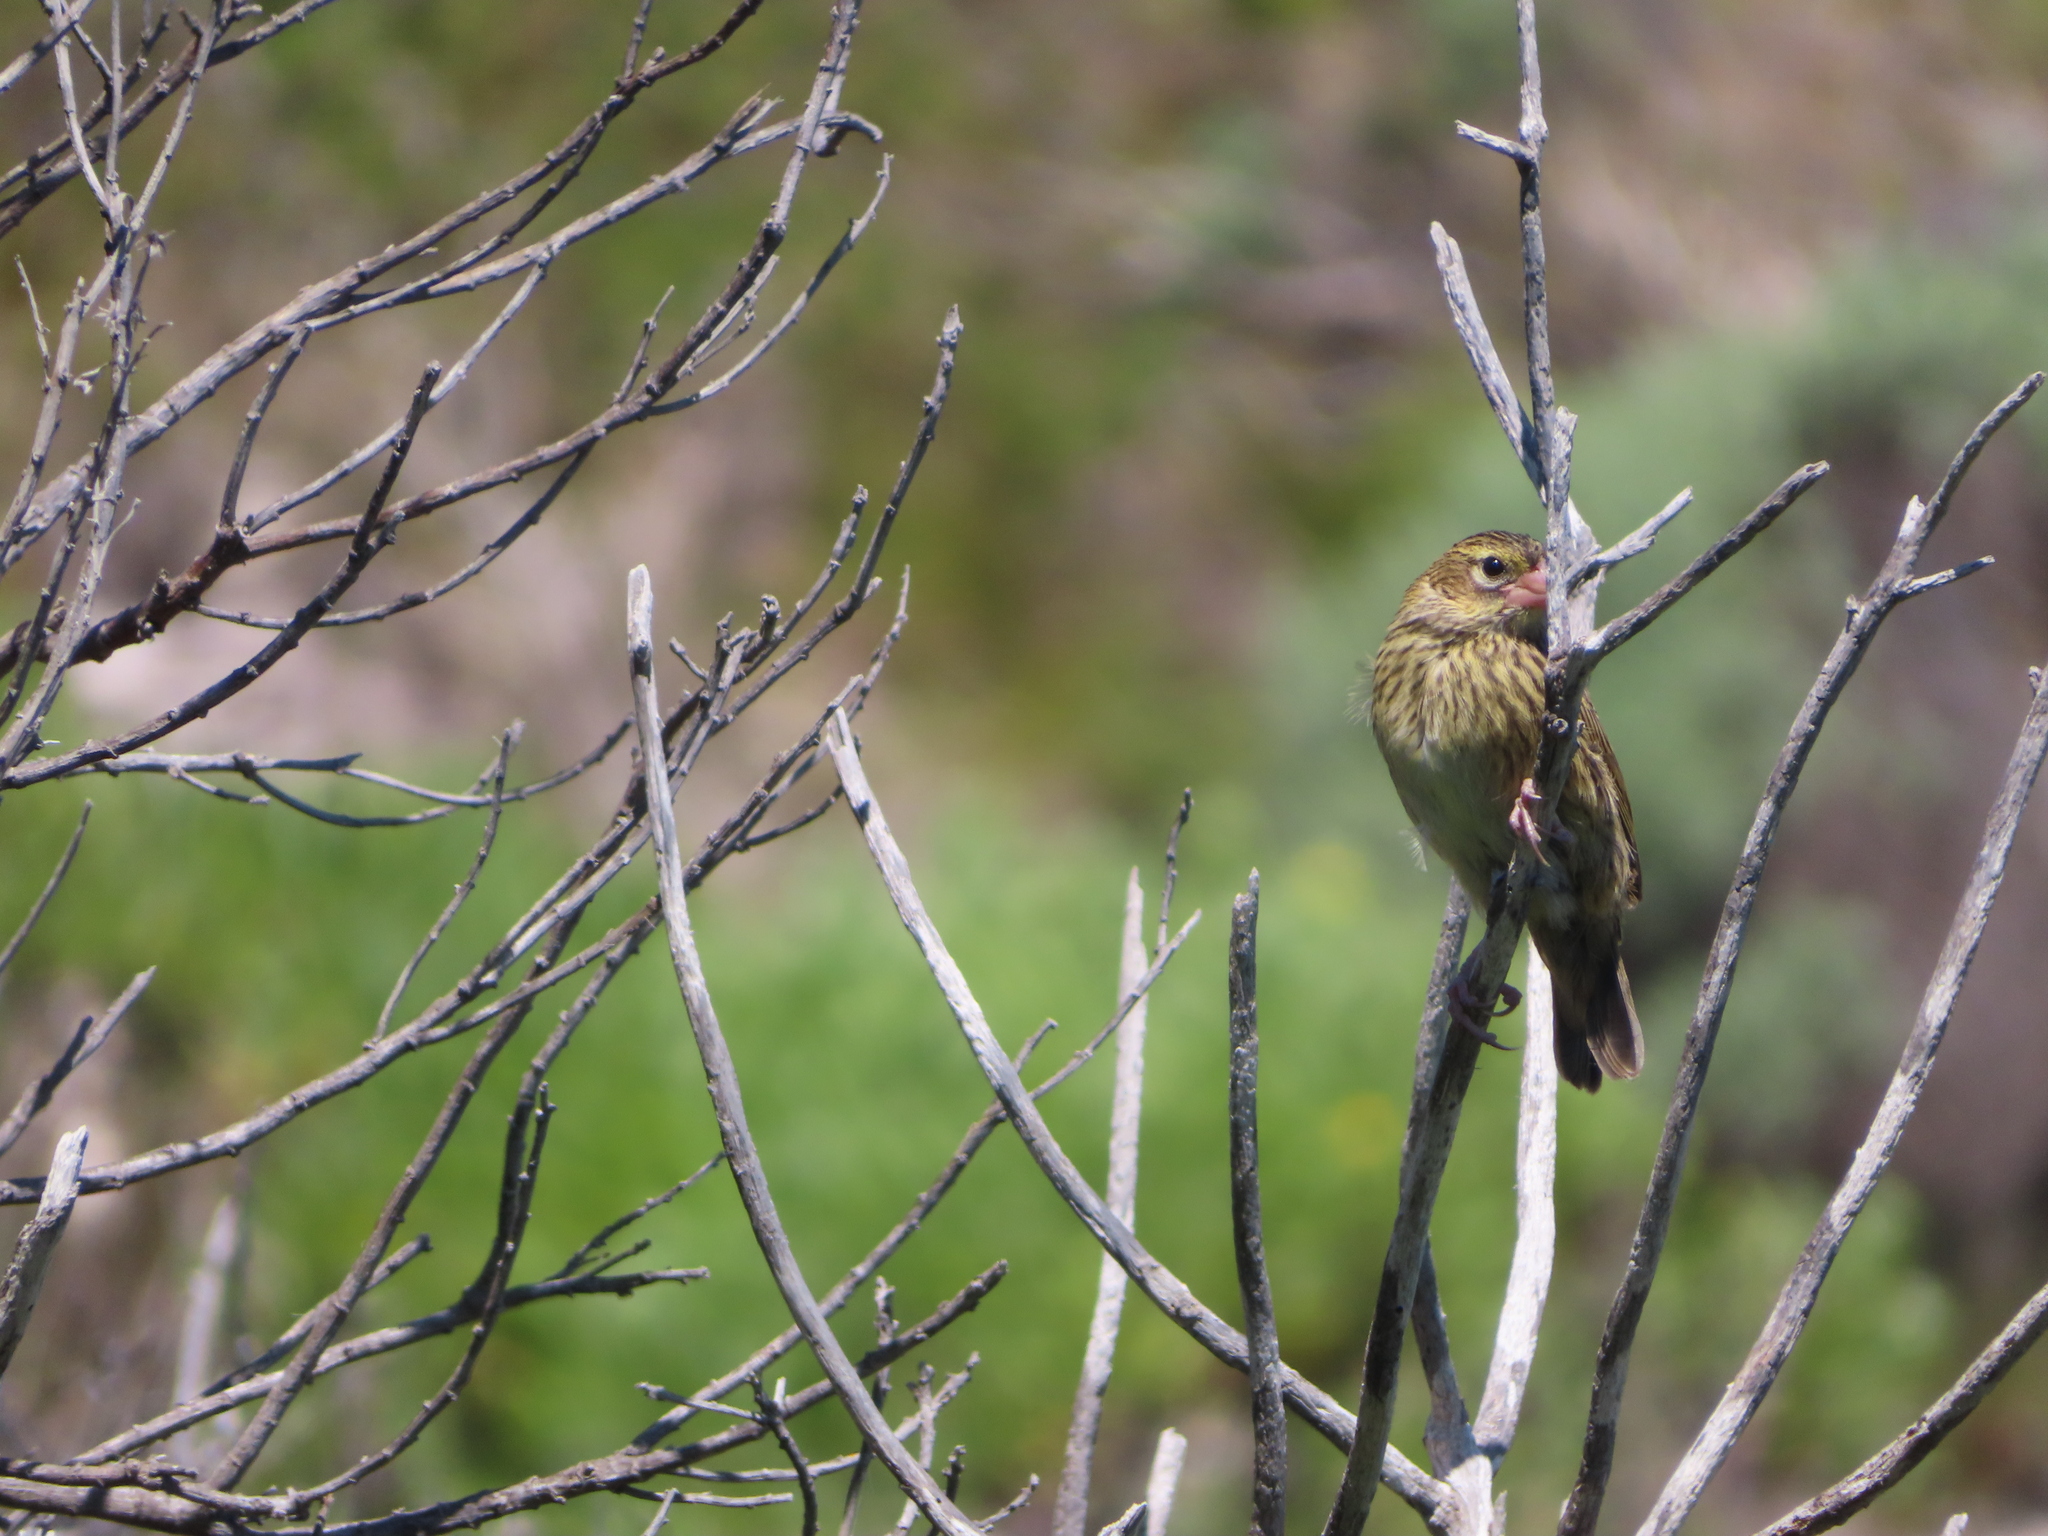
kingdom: Animalia
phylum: Chordata
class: Aves
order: Passeriformes
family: Ploceidae
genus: Euplectes
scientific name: Euplectes capensis
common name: Yellow bishop
